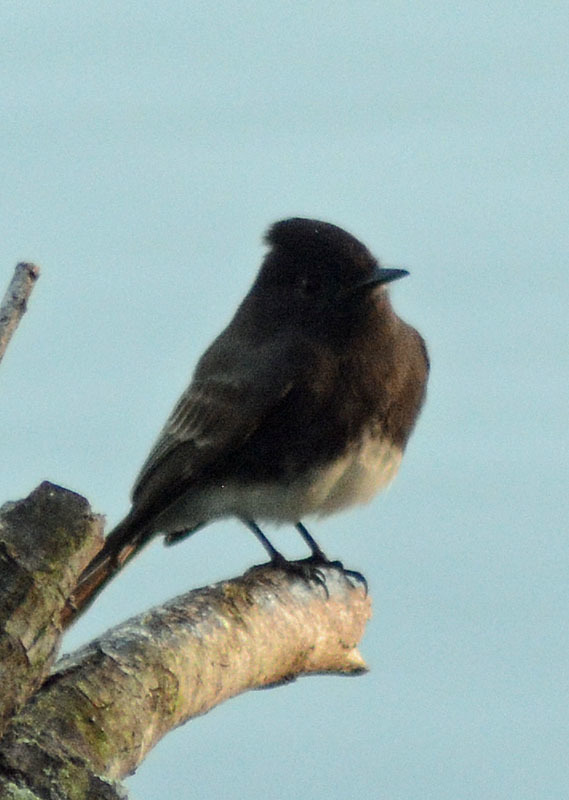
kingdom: Animalia
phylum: Chordata
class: Aves
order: Passeriformes
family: Tyrannidae
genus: Sayornis
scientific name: Sayornis nigricans
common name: Black phoebe
